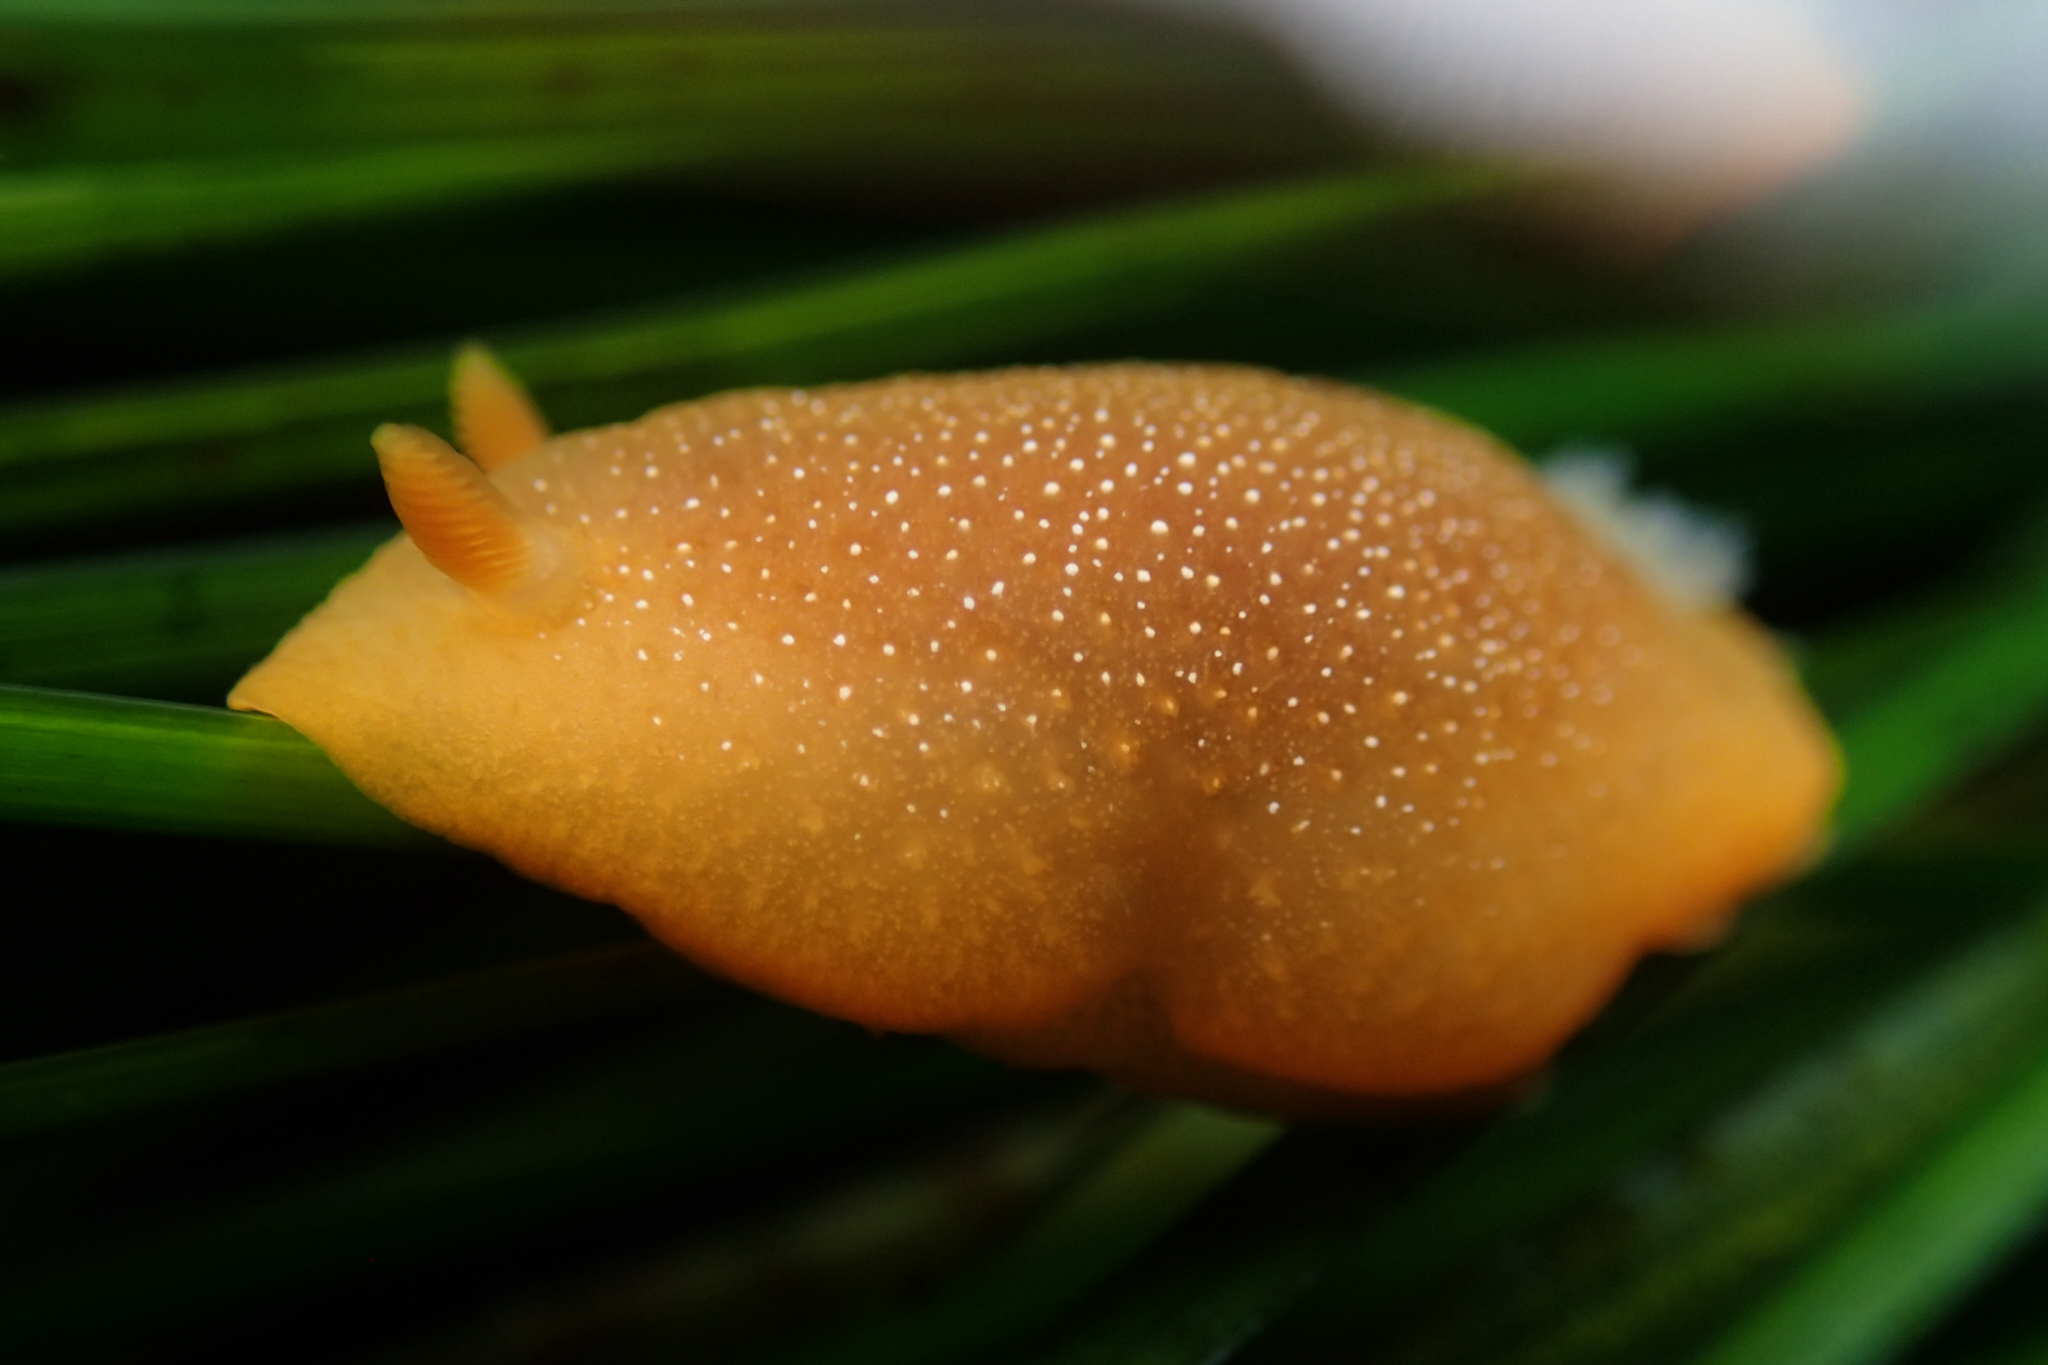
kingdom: Animalia
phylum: Mollusca
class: Gastropoda
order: Nudibranchia
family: Dendrodorididae
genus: Doriopsilla
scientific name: Doriopsilla albopunctata
